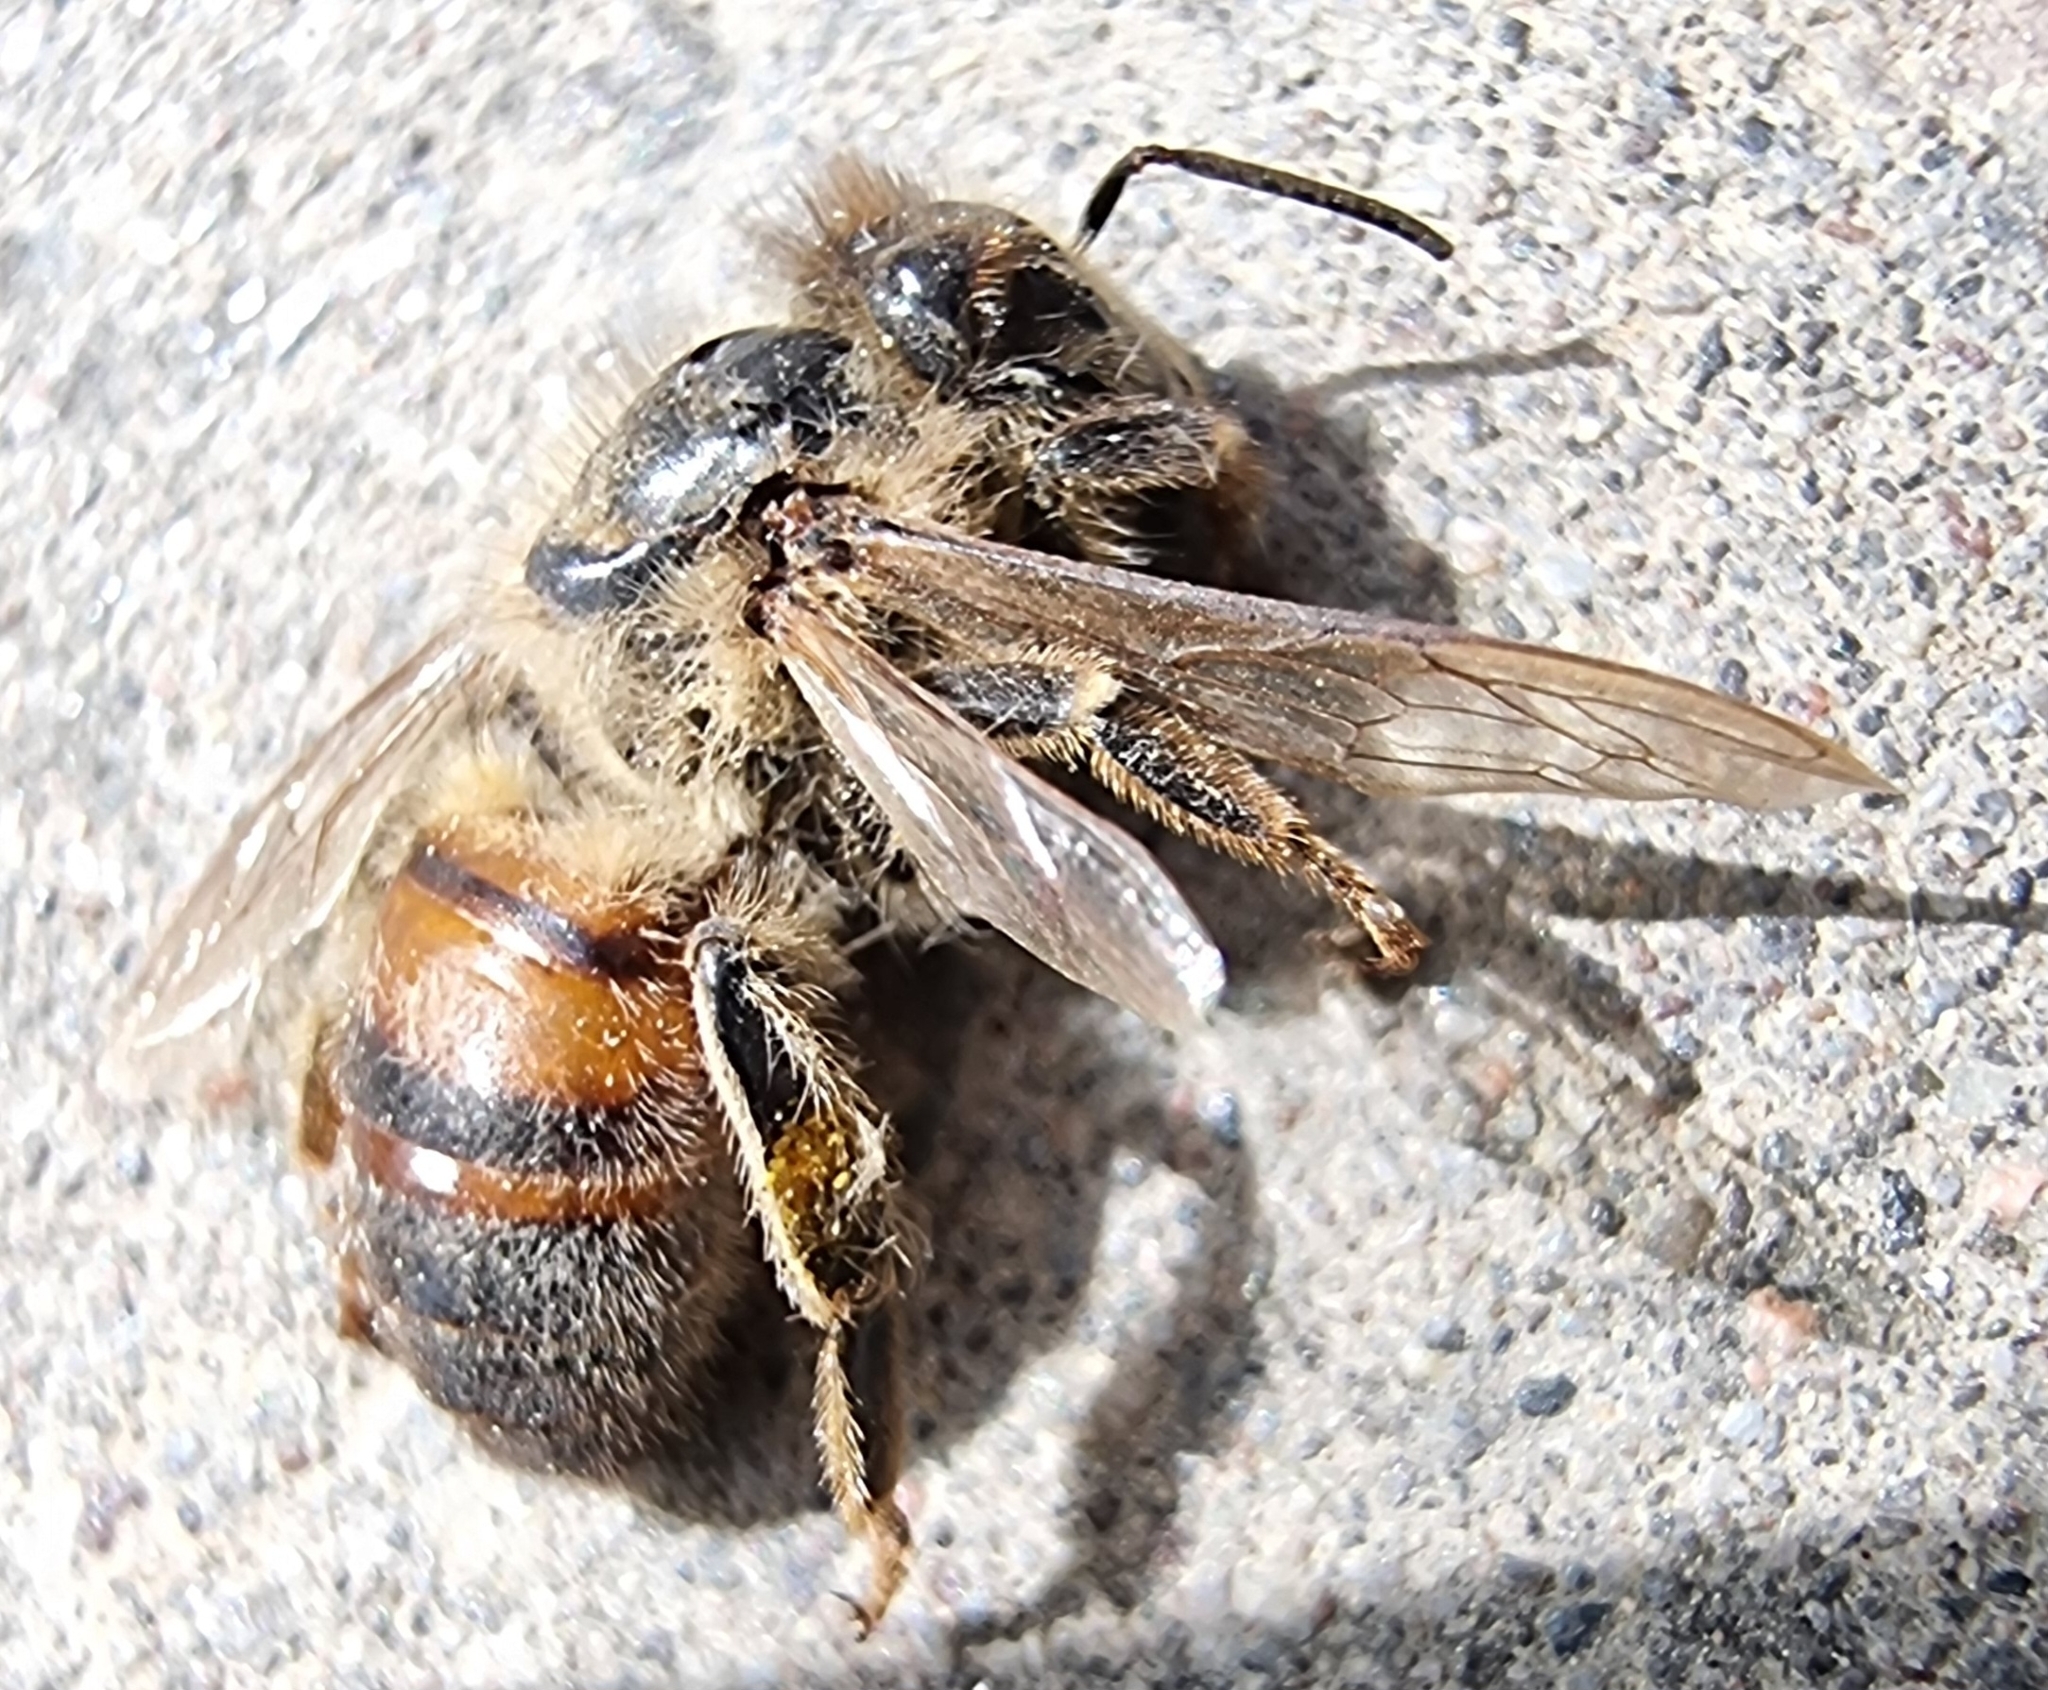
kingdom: Animalia
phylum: Arthropoda
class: Insecta
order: Hymenoptera
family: Apidae
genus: Apis
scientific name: Apis mellifera
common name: Honey bee
